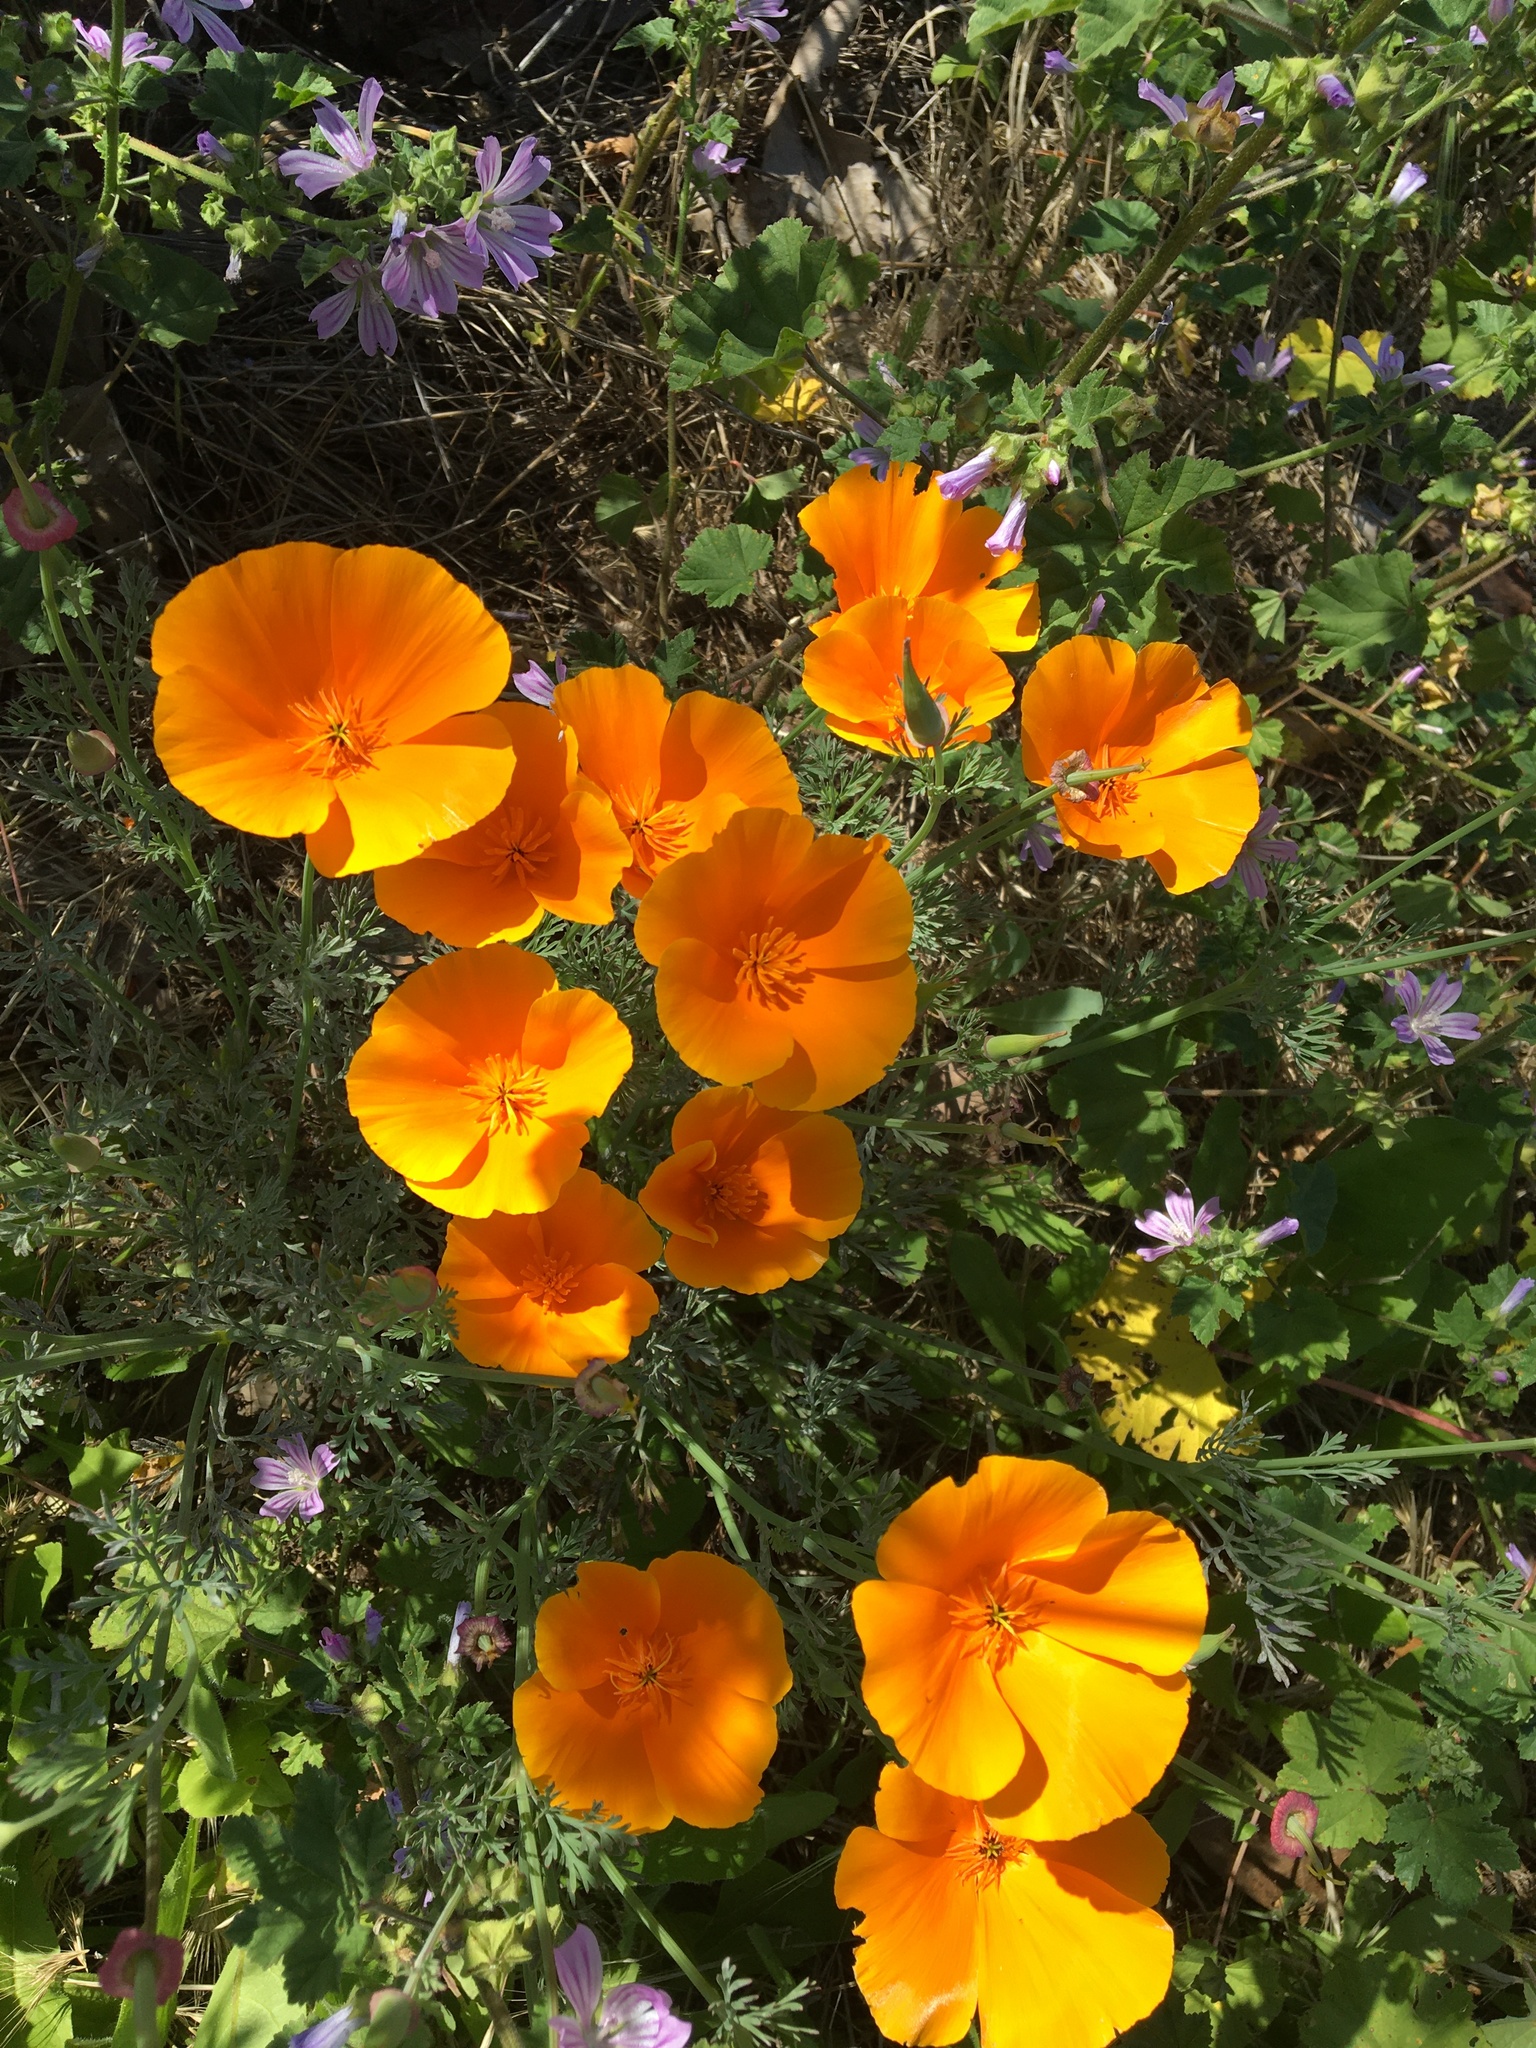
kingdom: Plantae
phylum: Tracheophyta
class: Magnoliopsida
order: Ranunculales
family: Papaveraceae
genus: Eschscholzia
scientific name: Eschscholzia californica
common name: California poppy
